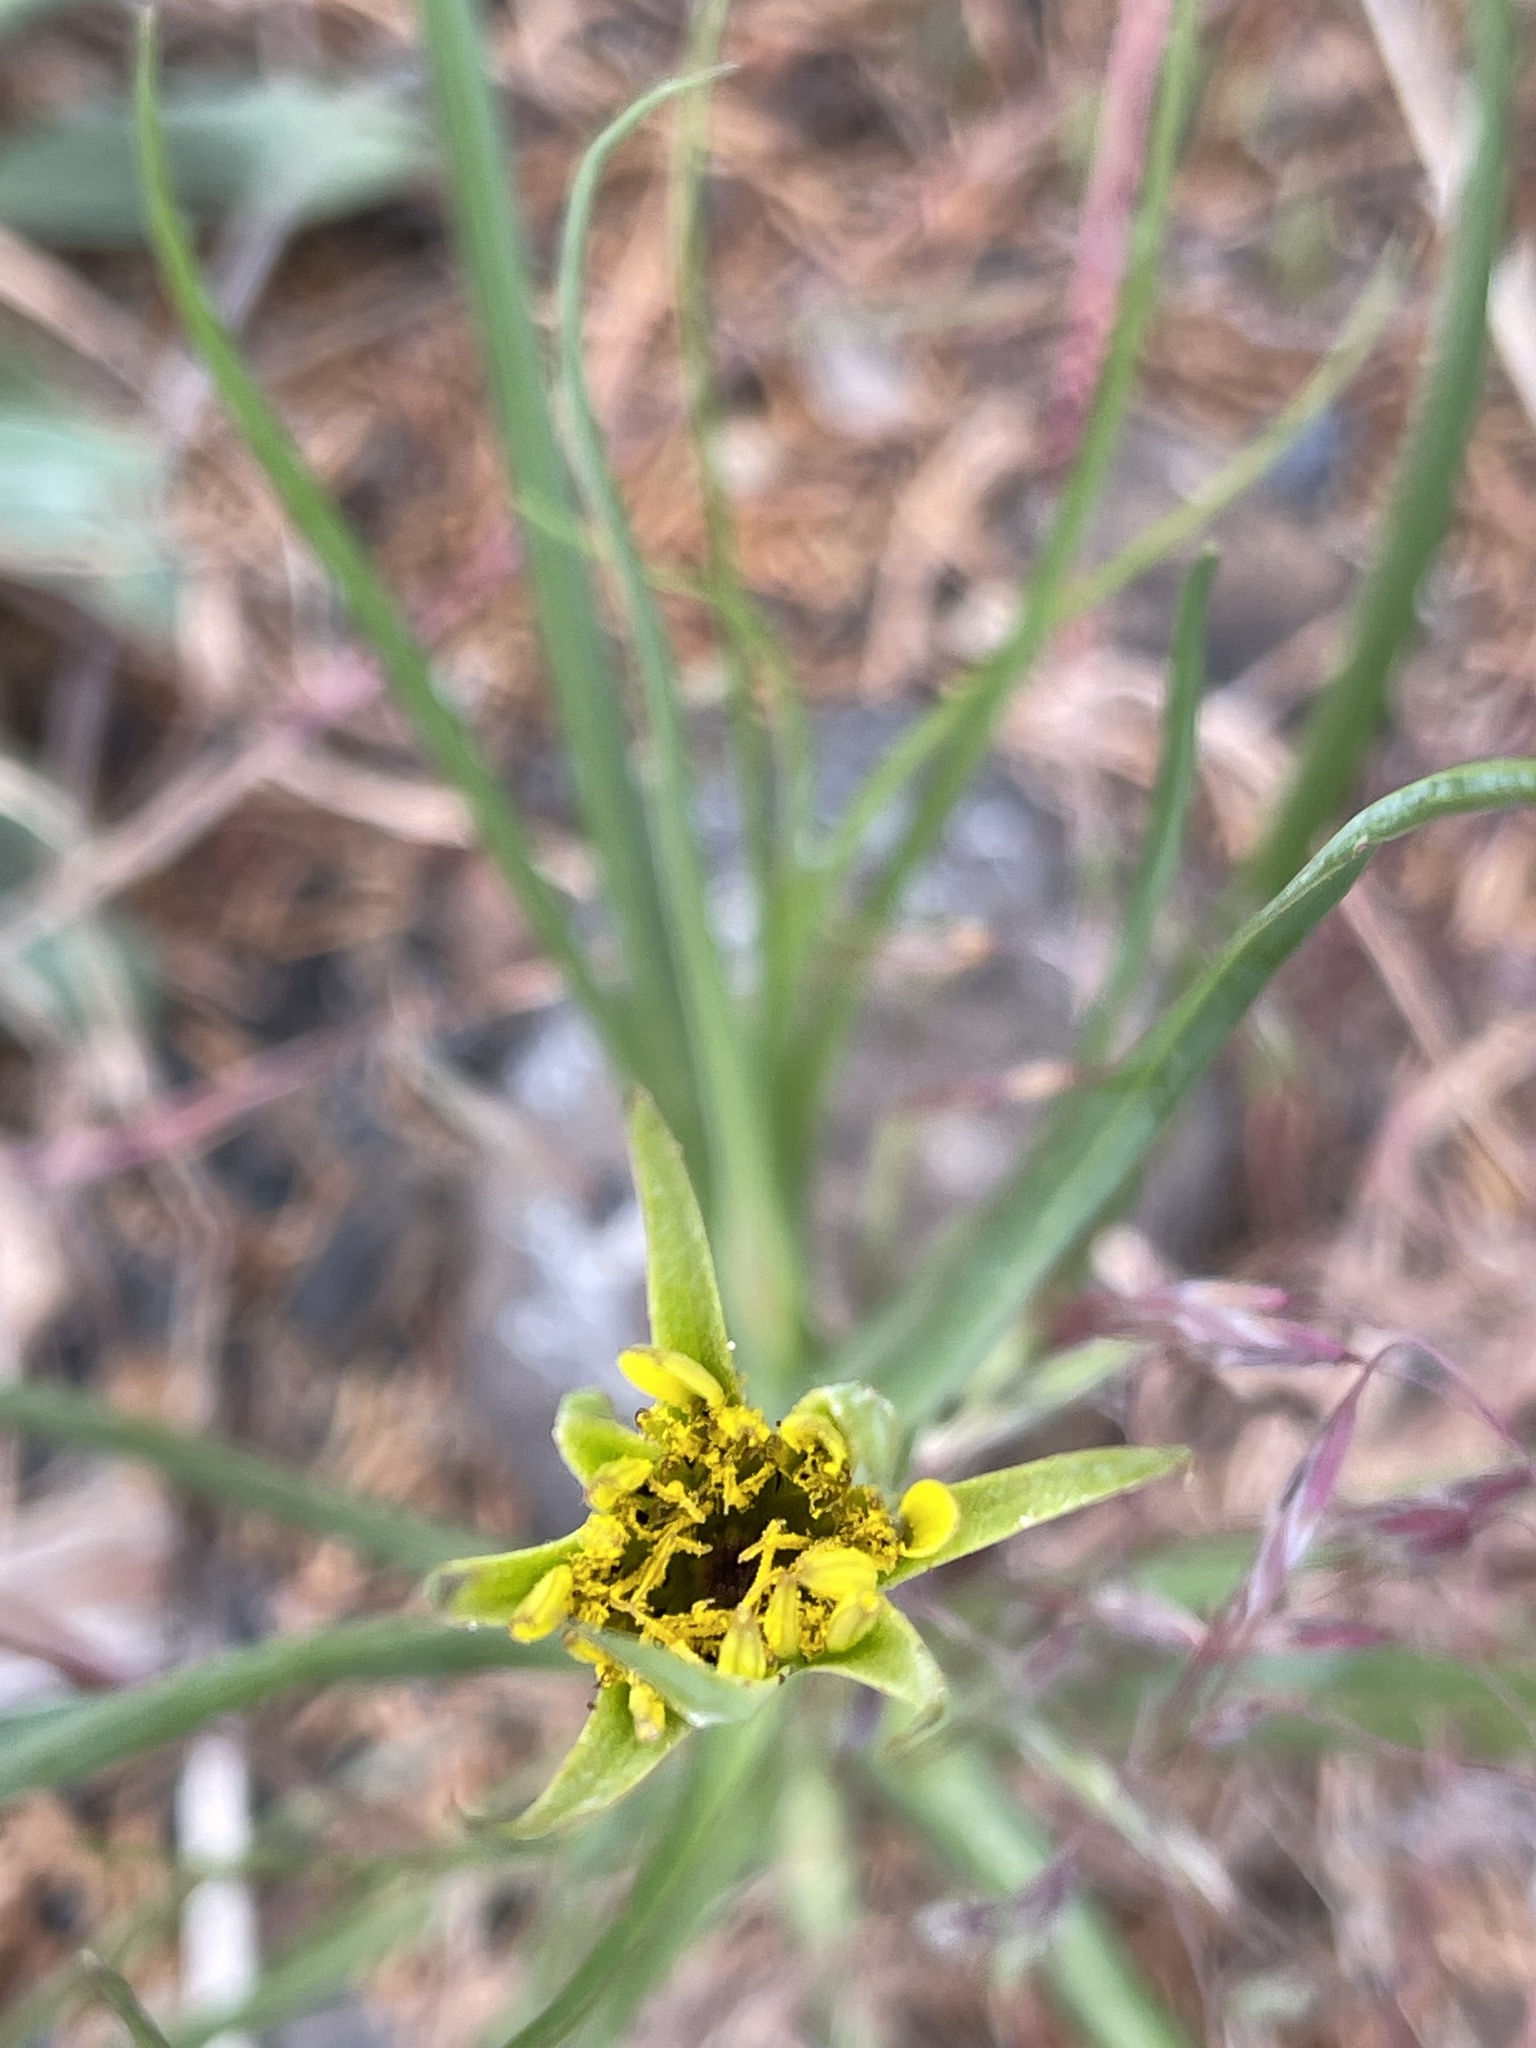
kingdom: Plantae
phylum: Tracheophyta
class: Magnoliopsida
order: Asterales
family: Asteraceae
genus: Tragopogon
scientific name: Tragopogon dubius
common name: Yellow salsify
